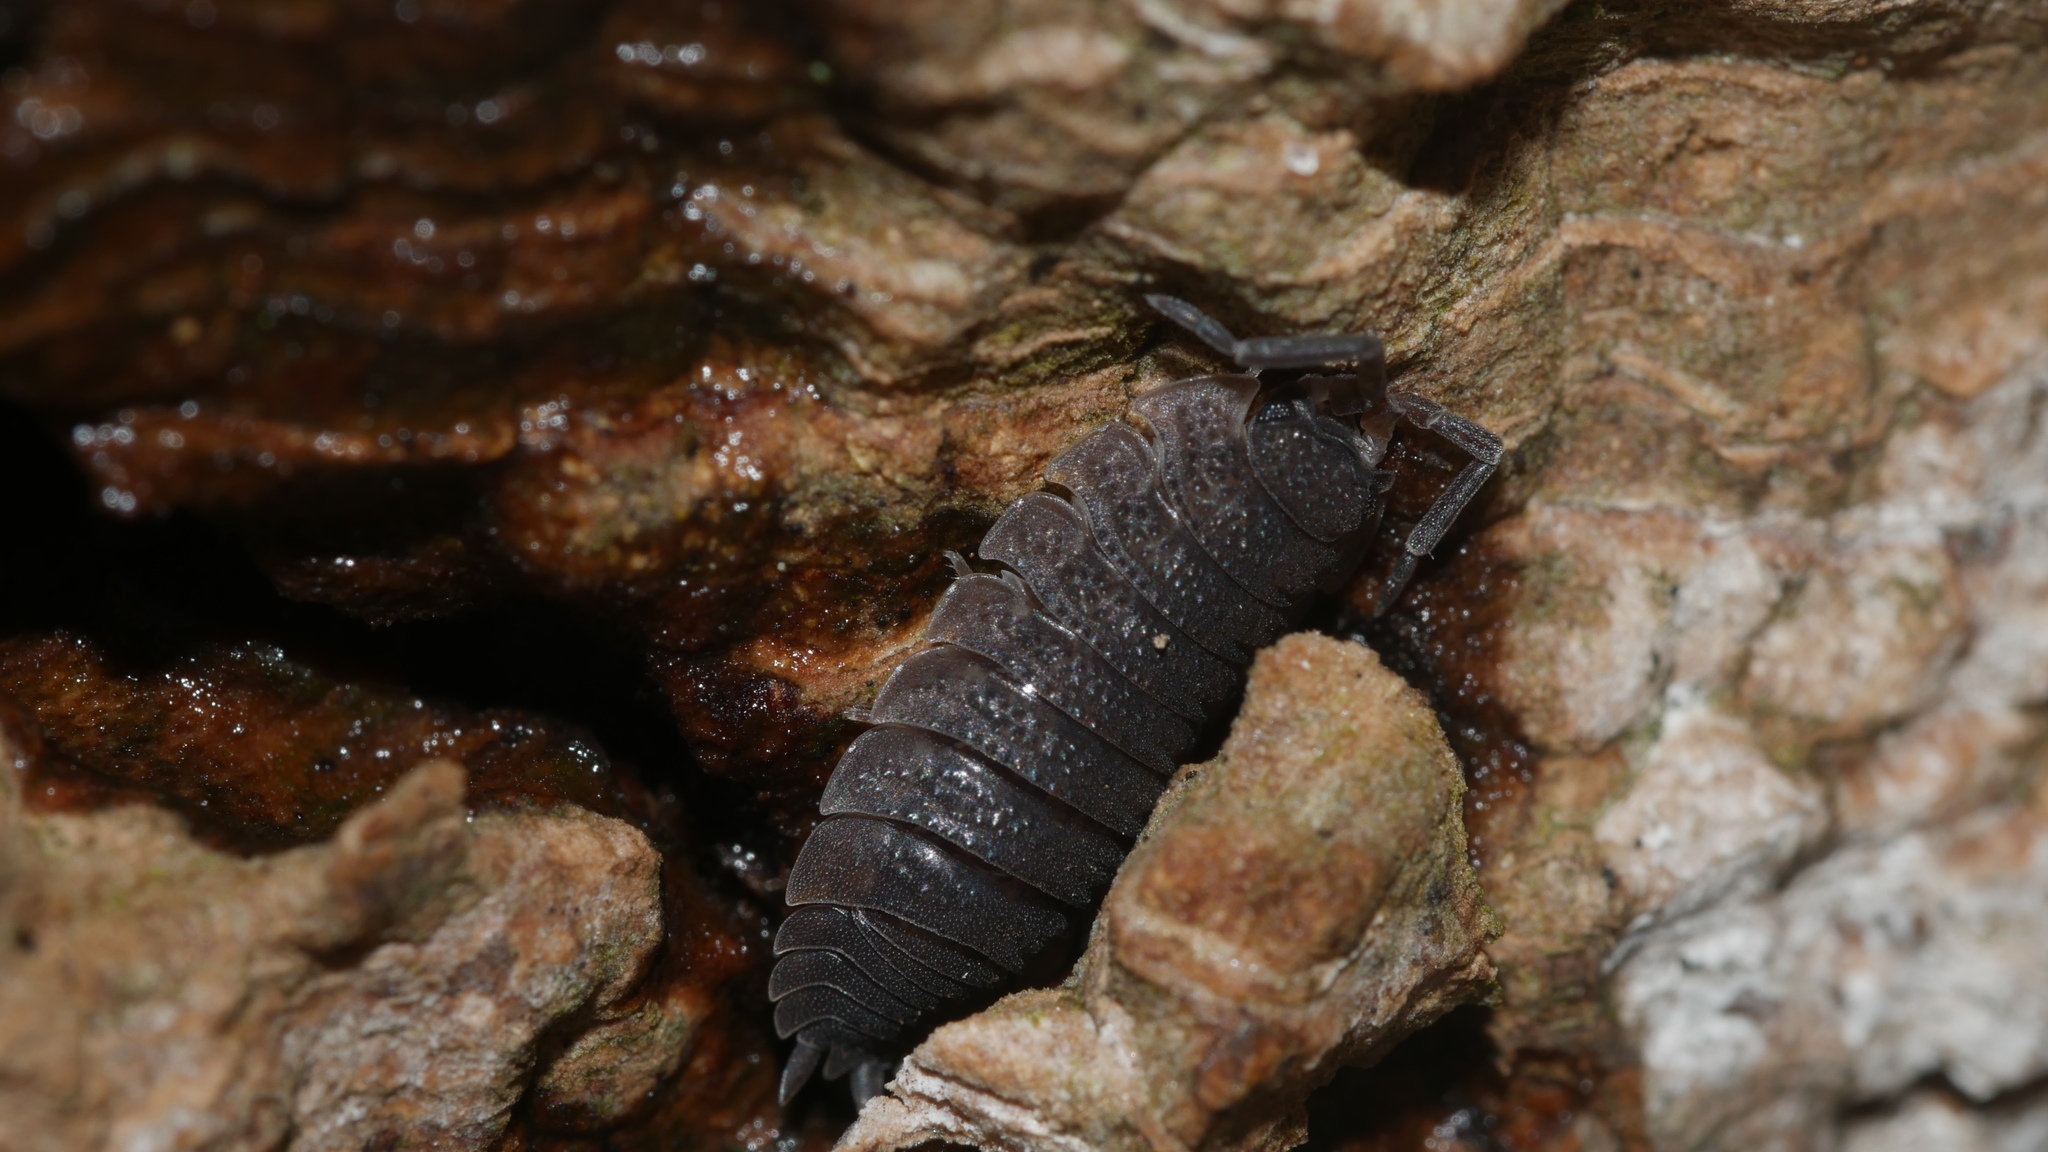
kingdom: Animalia
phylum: Arthropoda
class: Malacostraca
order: Isopoda
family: Porcellionidae
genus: Porcellio
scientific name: Porcellio scaber
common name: Common rough woodlouse
